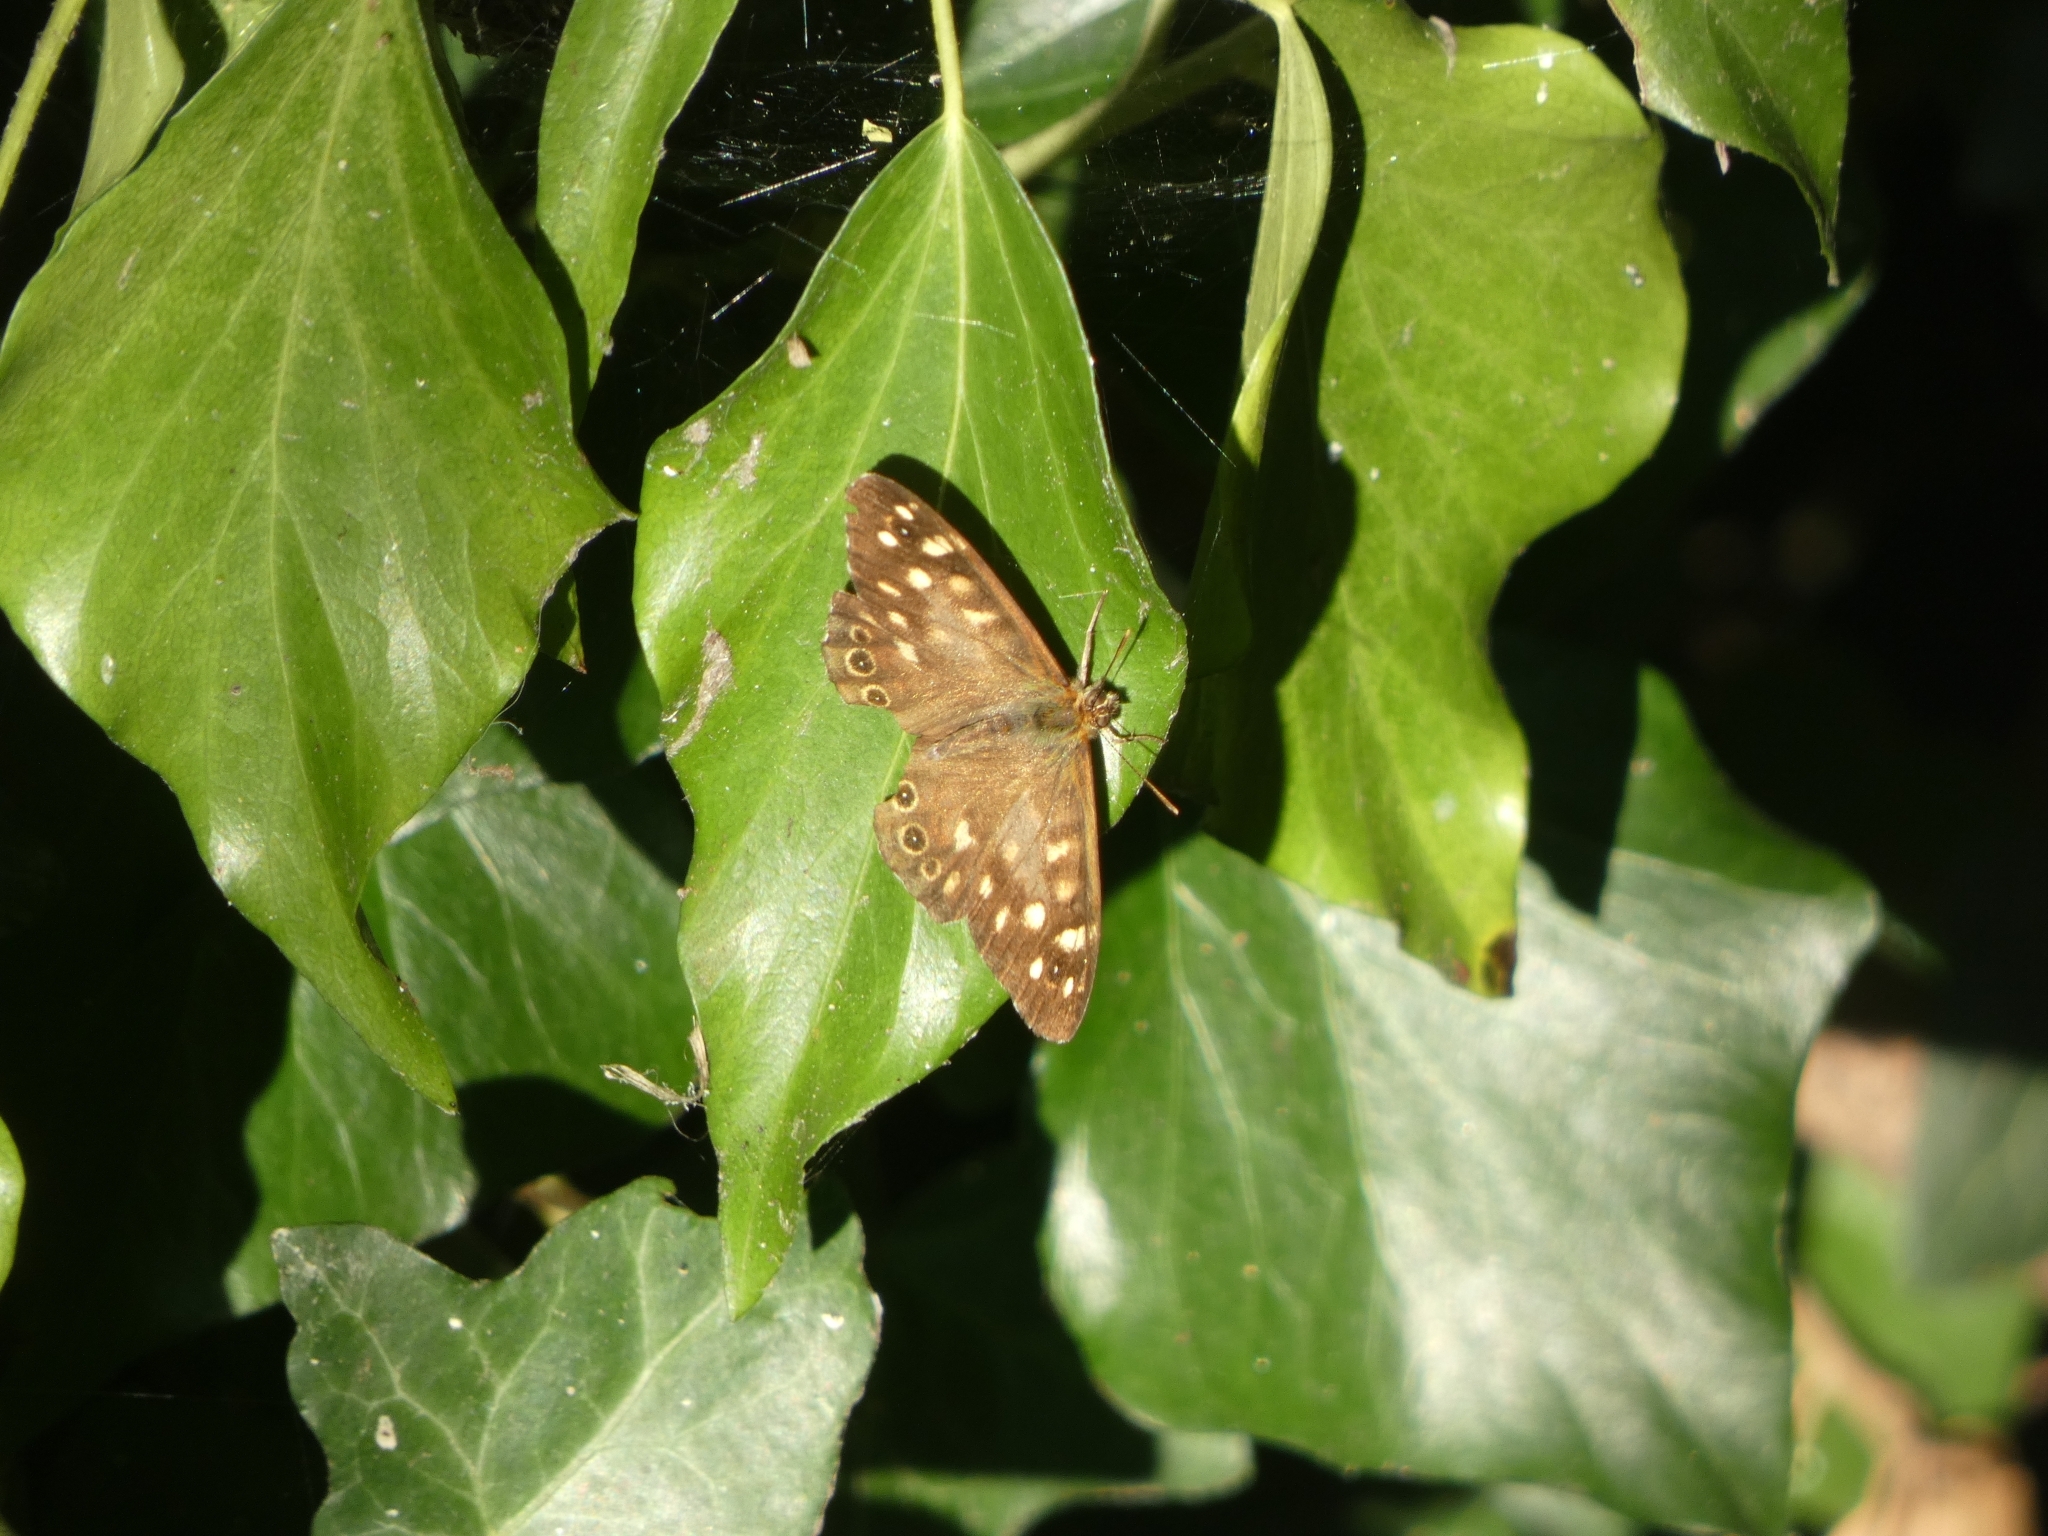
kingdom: Animalia
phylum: Arthropoda
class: Insecta
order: Lepidoptera
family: Nymphalidae
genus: Pararge
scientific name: Pararge aegeria
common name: Speckled wood
